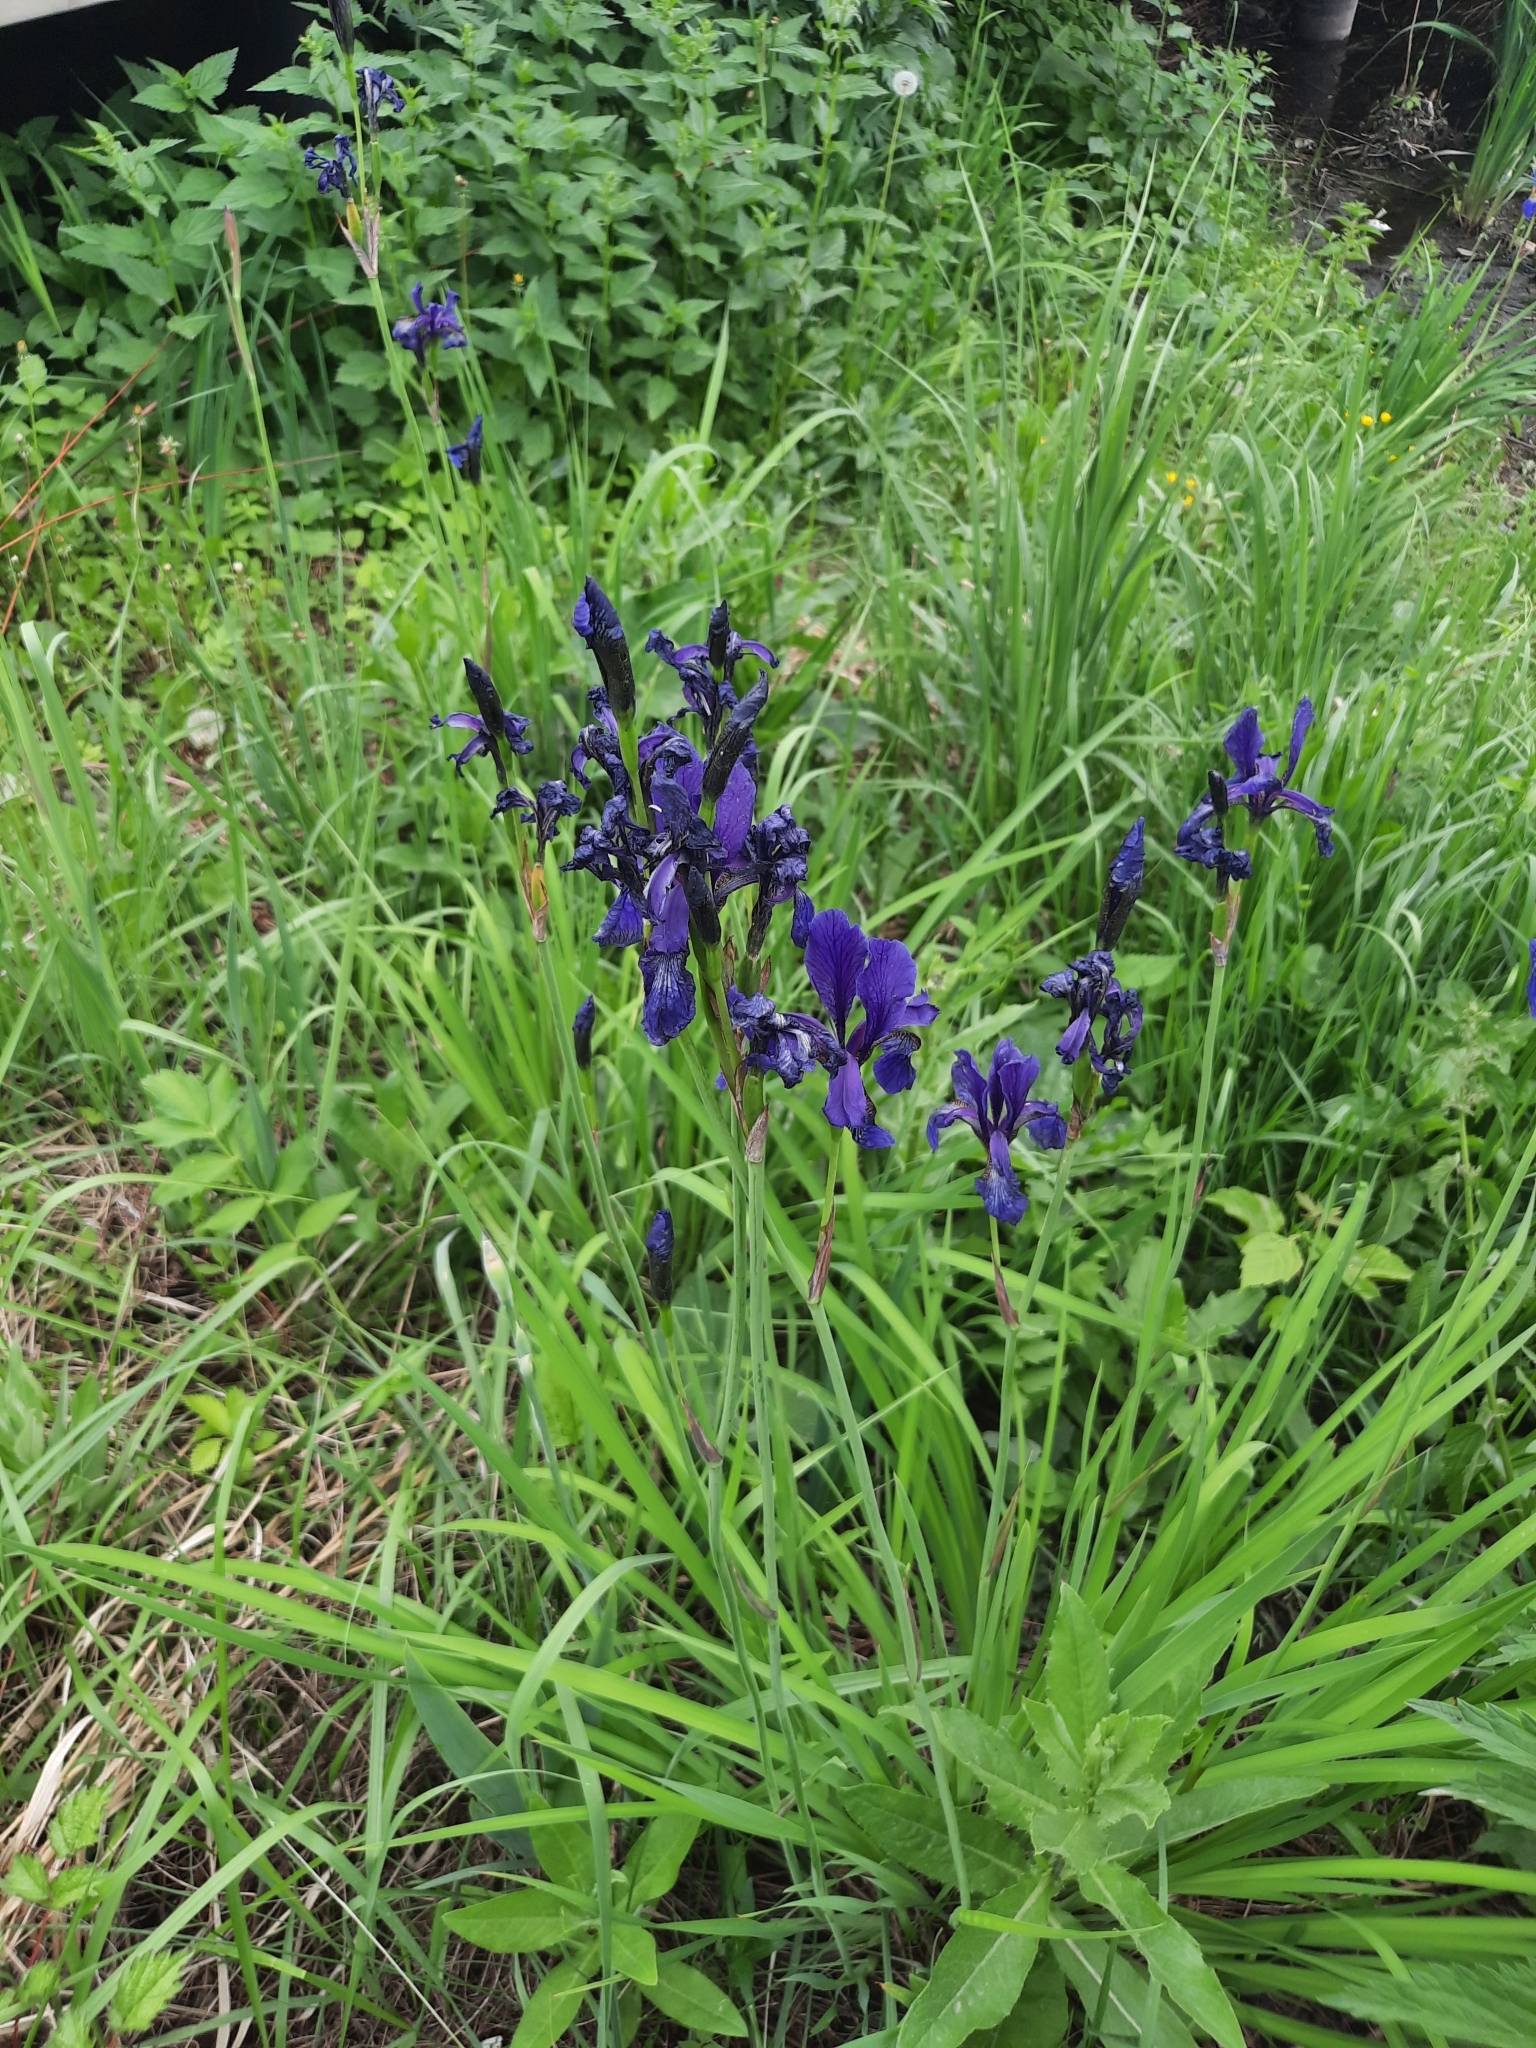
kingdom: Plantae
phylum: Tracheophyta
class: Liliopsida
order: Asparagales
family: Iridaceae
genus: Iris
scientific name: Iris sibirica
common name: Siberian iris
